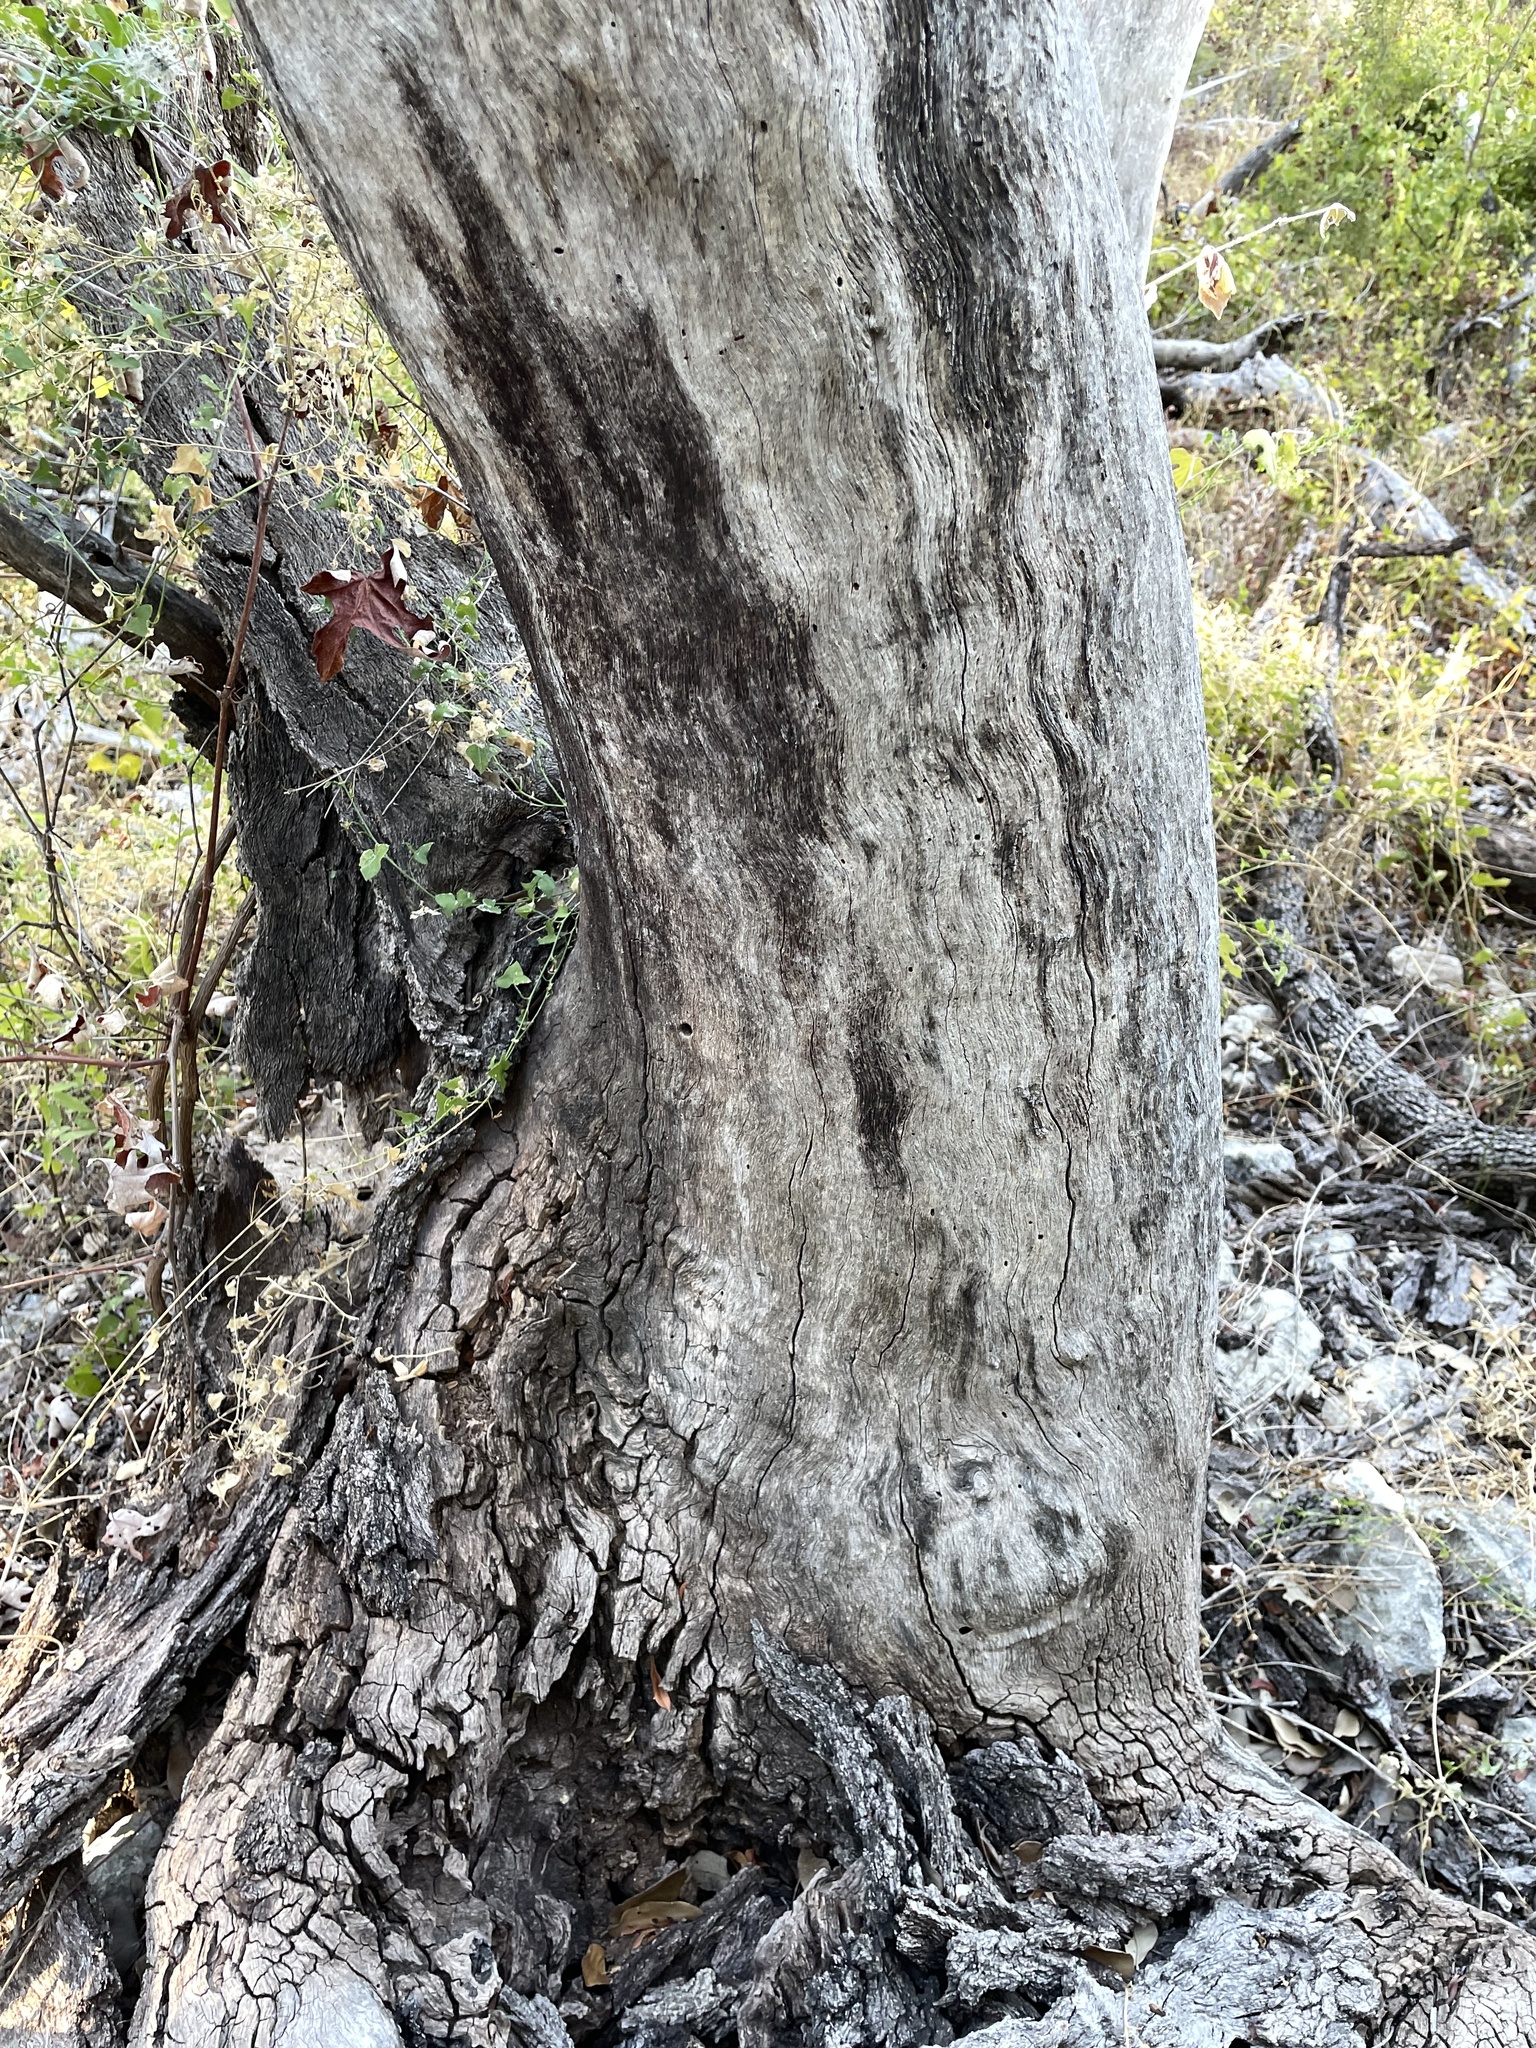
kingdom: Plantae
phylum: Tracheophyta
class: Magnoliopsida
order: Fagales
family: Fagaceae
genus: Quercus
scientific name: Quercus fusiformis
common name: Texas live oak
